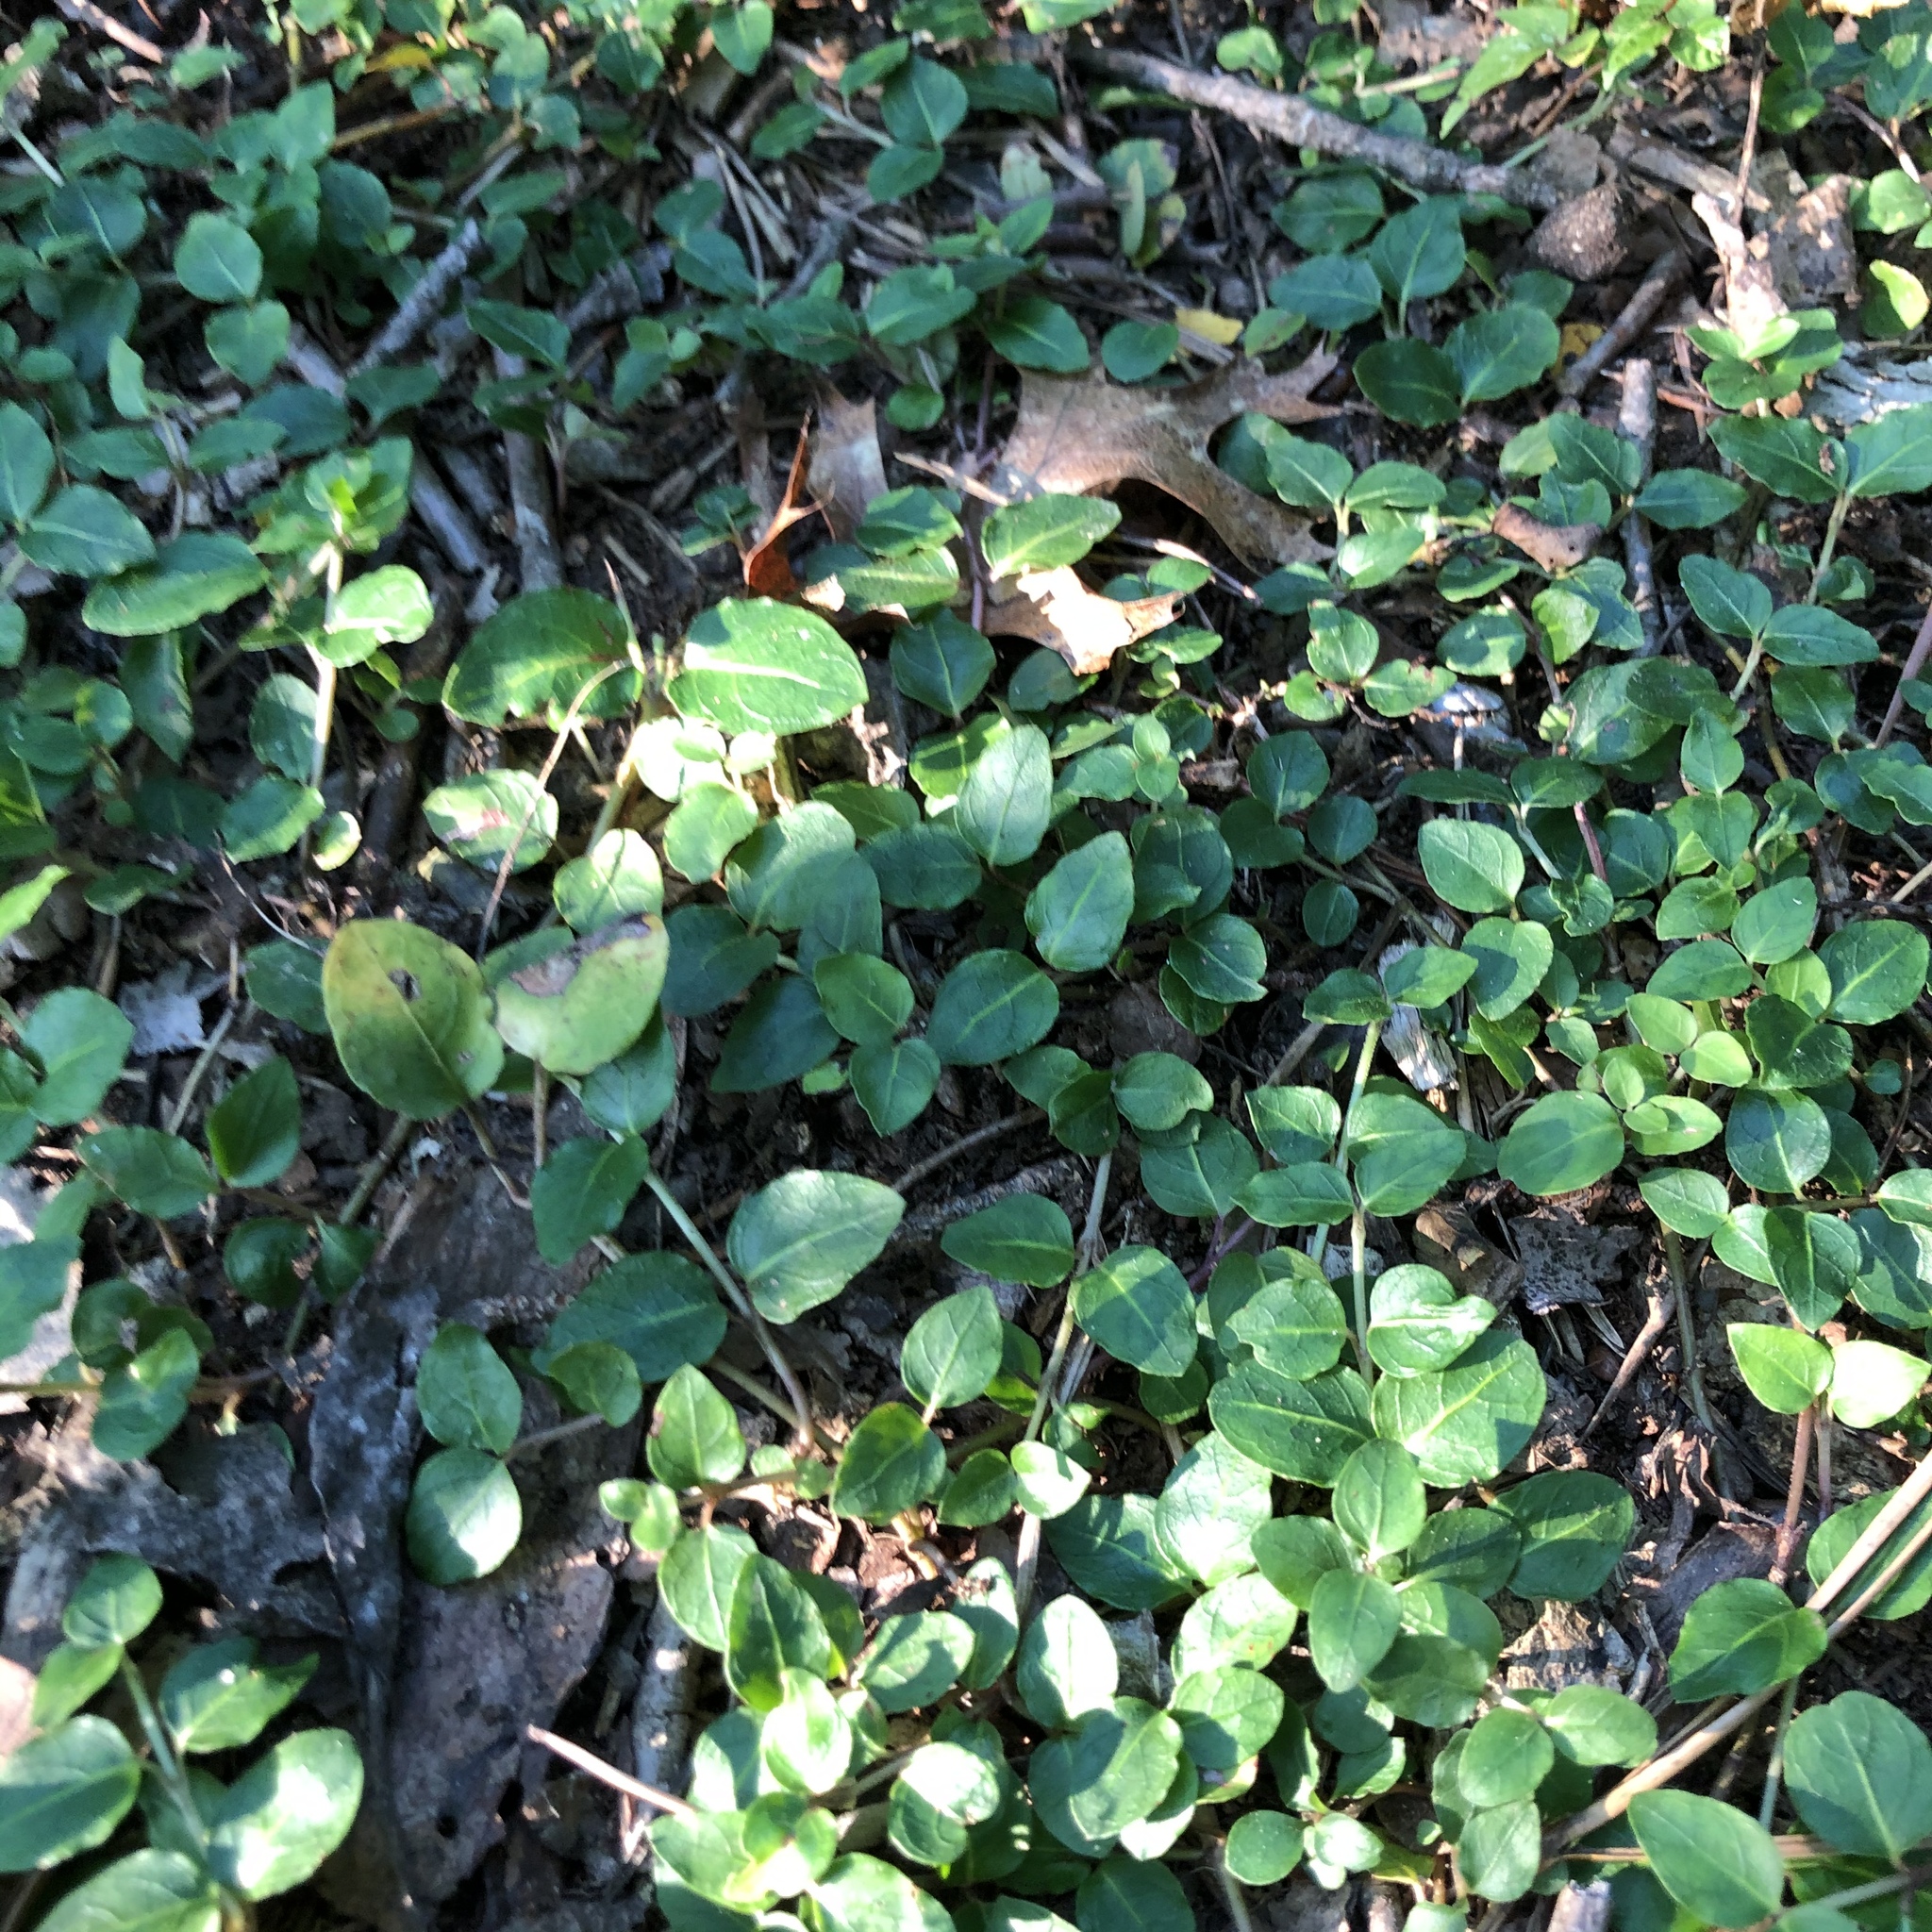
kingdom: Plantae
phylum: Tracheophyta
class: Magnoliopsida
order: Gentianales
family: Rubiaceae
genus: Mitchella
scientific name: Mitchella repens
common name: Partridge-berry
